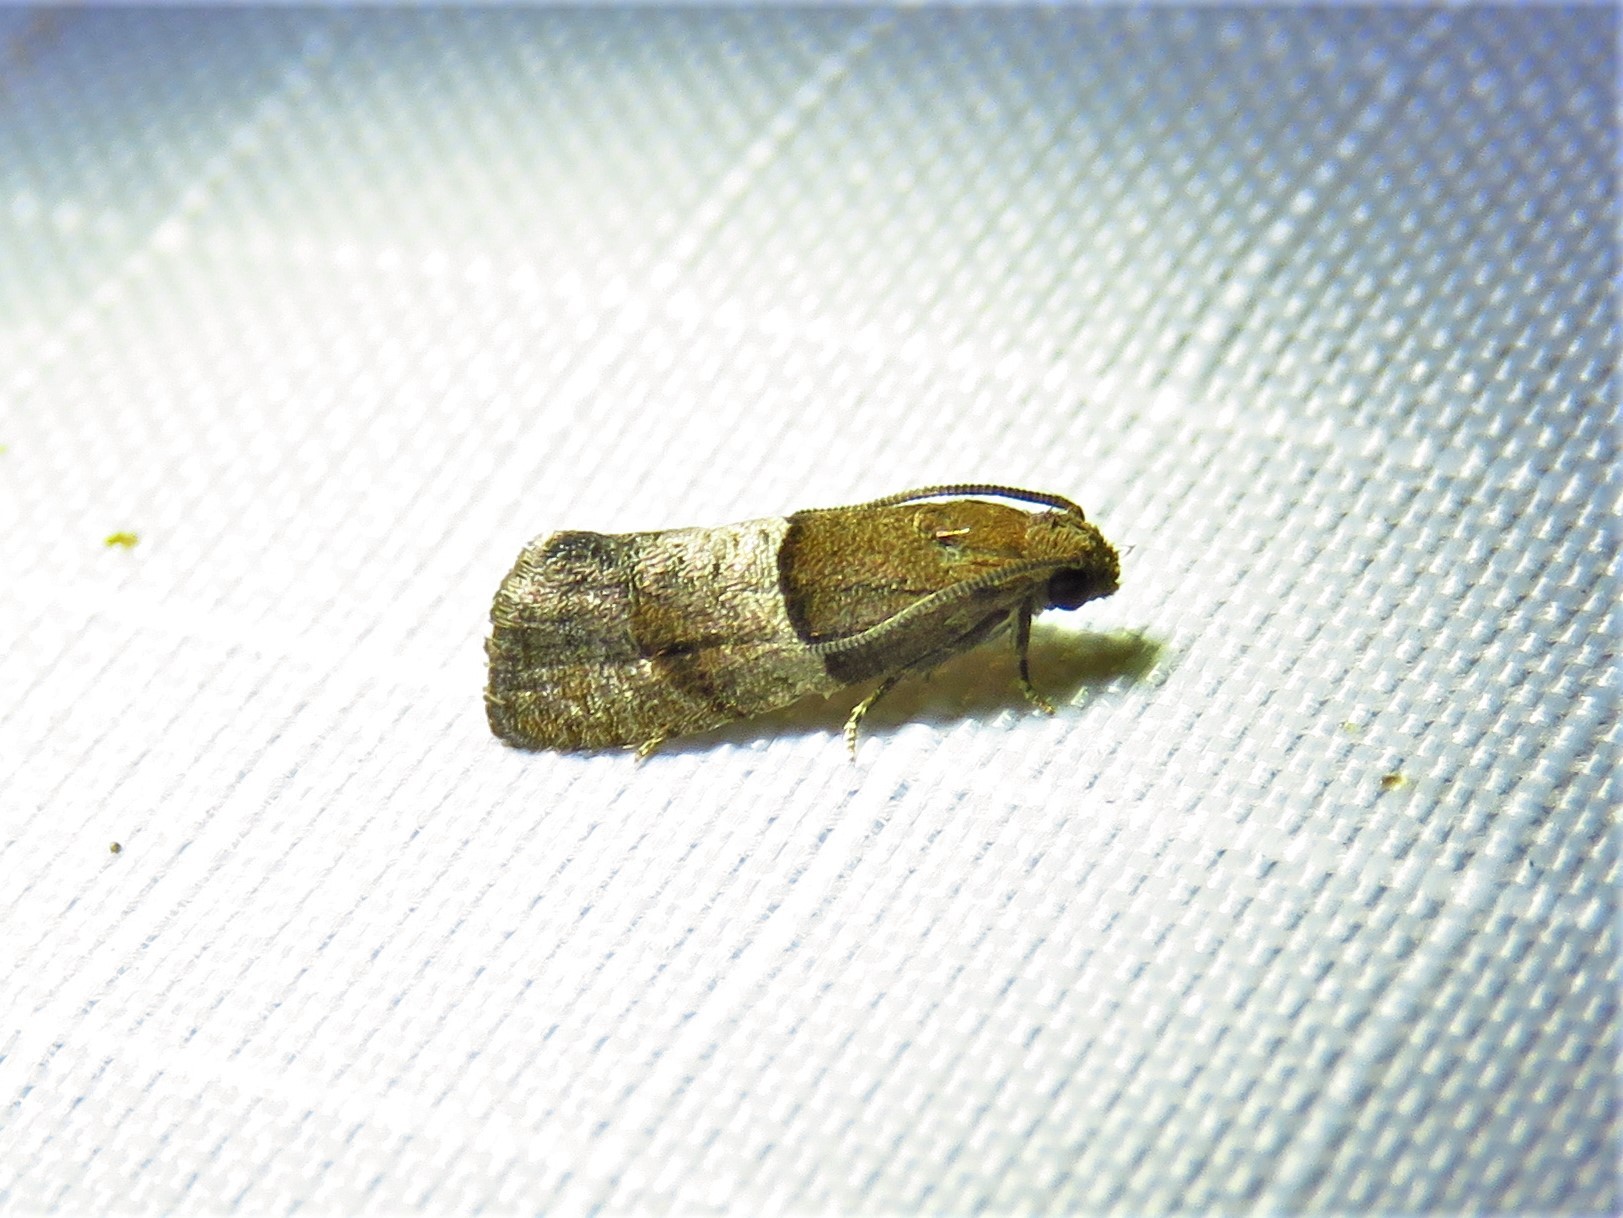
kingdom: Animalia
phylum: Arthropoda
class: Insecta
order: Lepidoptera
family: Tortricidae
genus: Larisa
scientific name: Larisa subsolana
